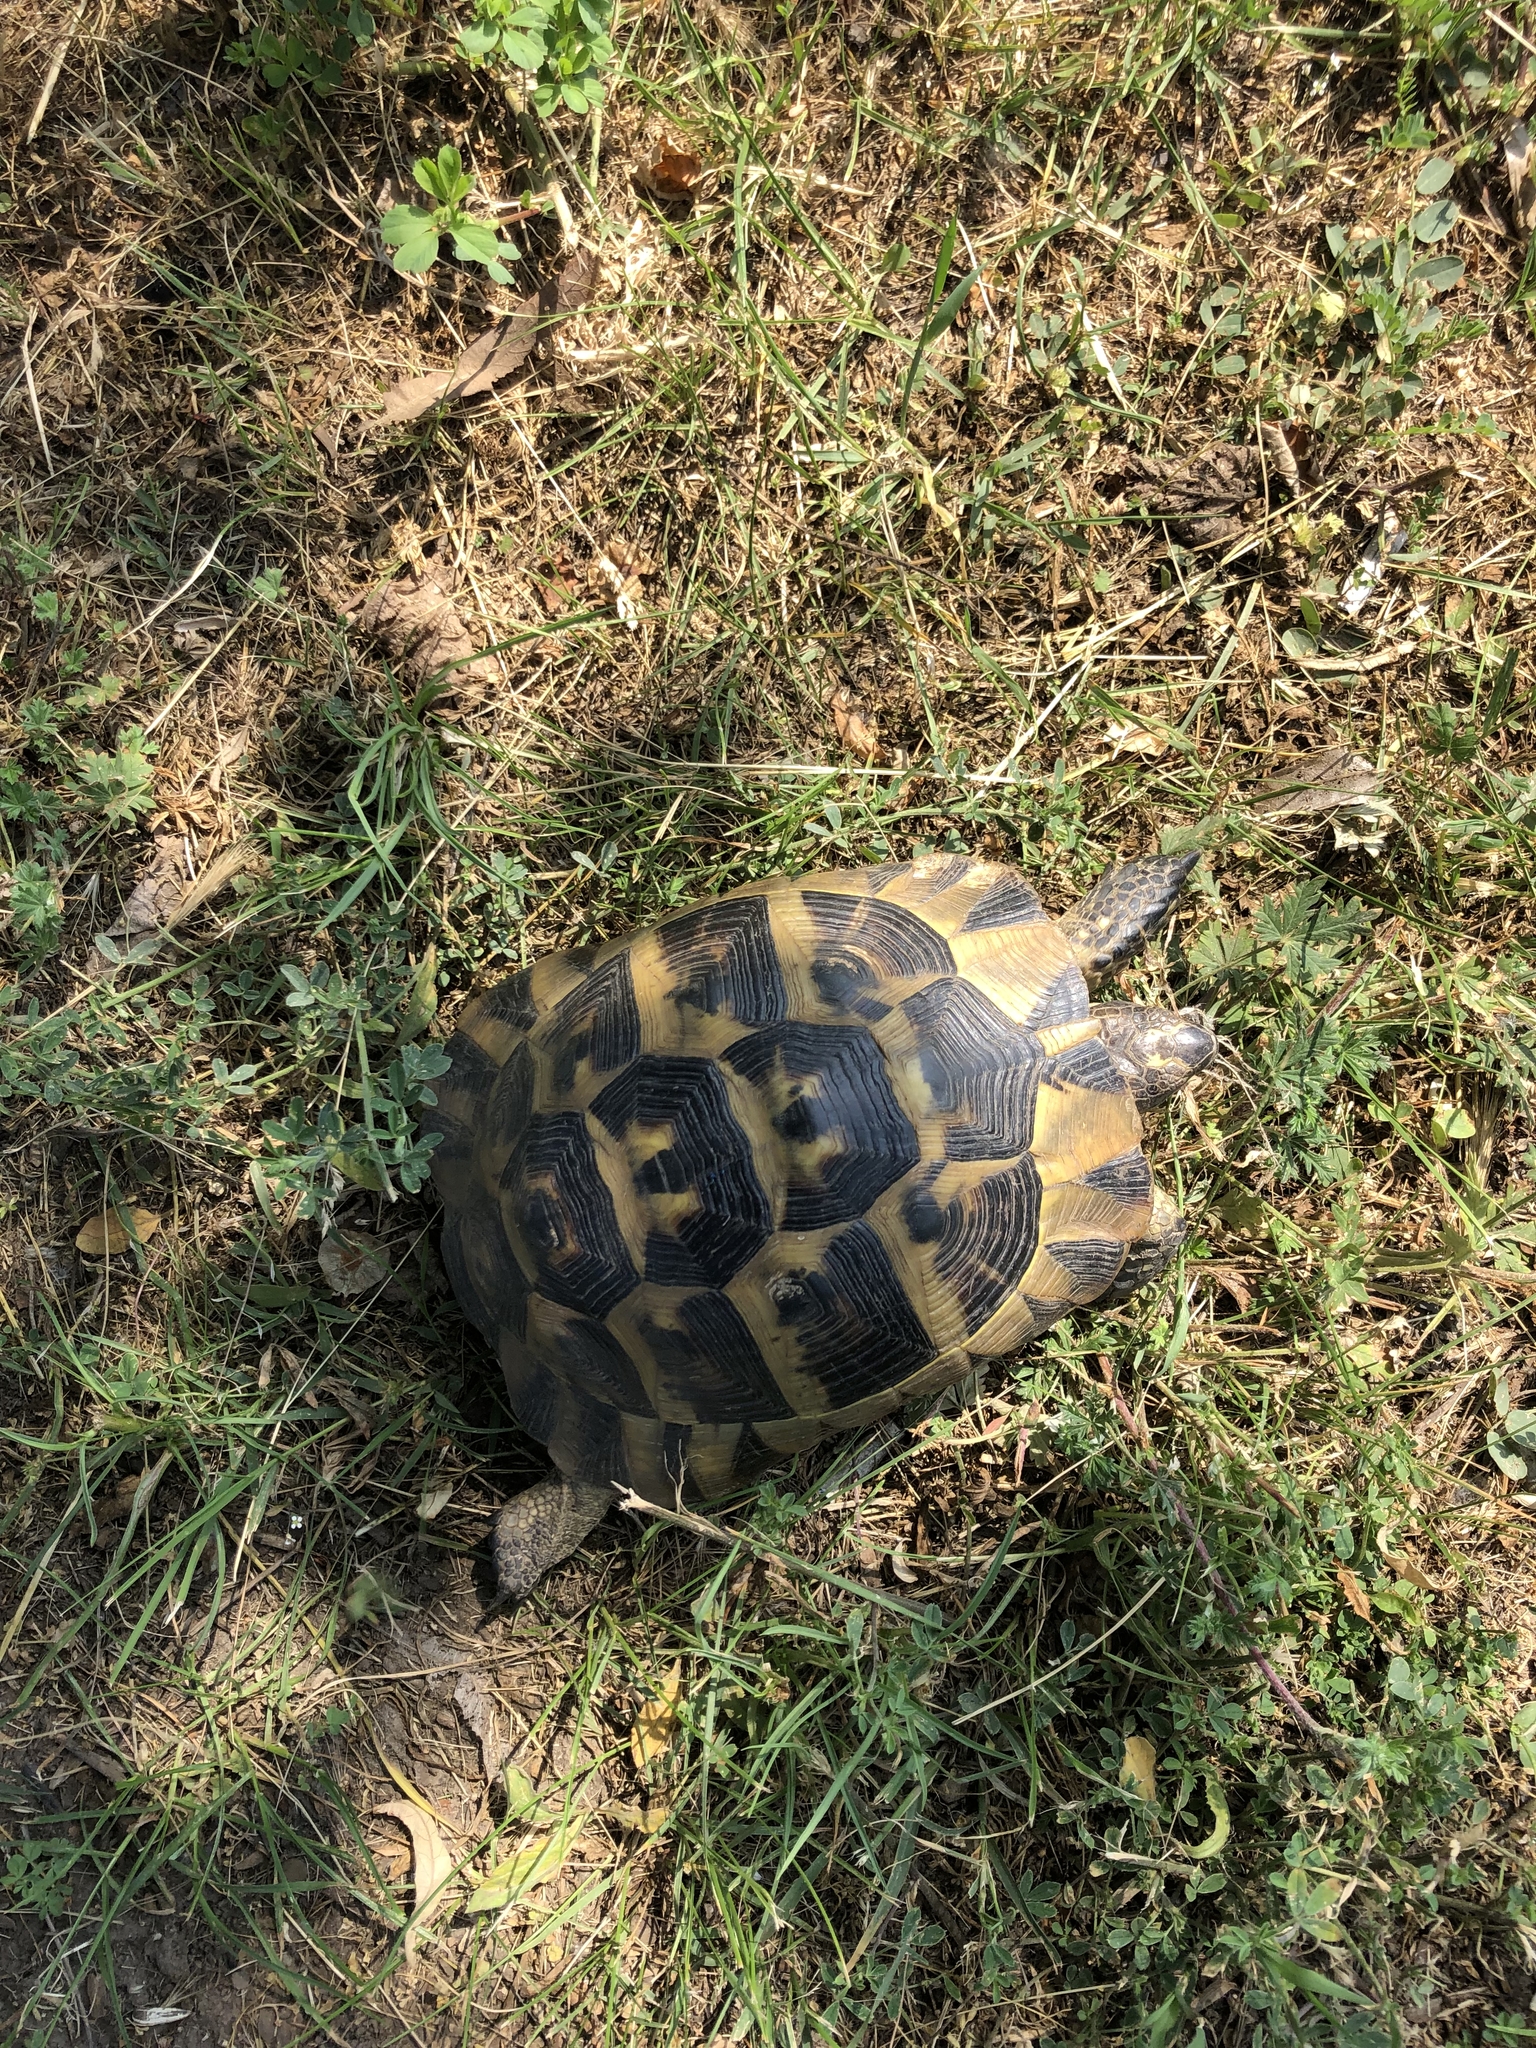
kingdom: Animalia
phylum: Chordata
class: Testudines
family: Testudinidae
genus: Testudo
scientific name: Testudo graeca
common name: Common tortoise
